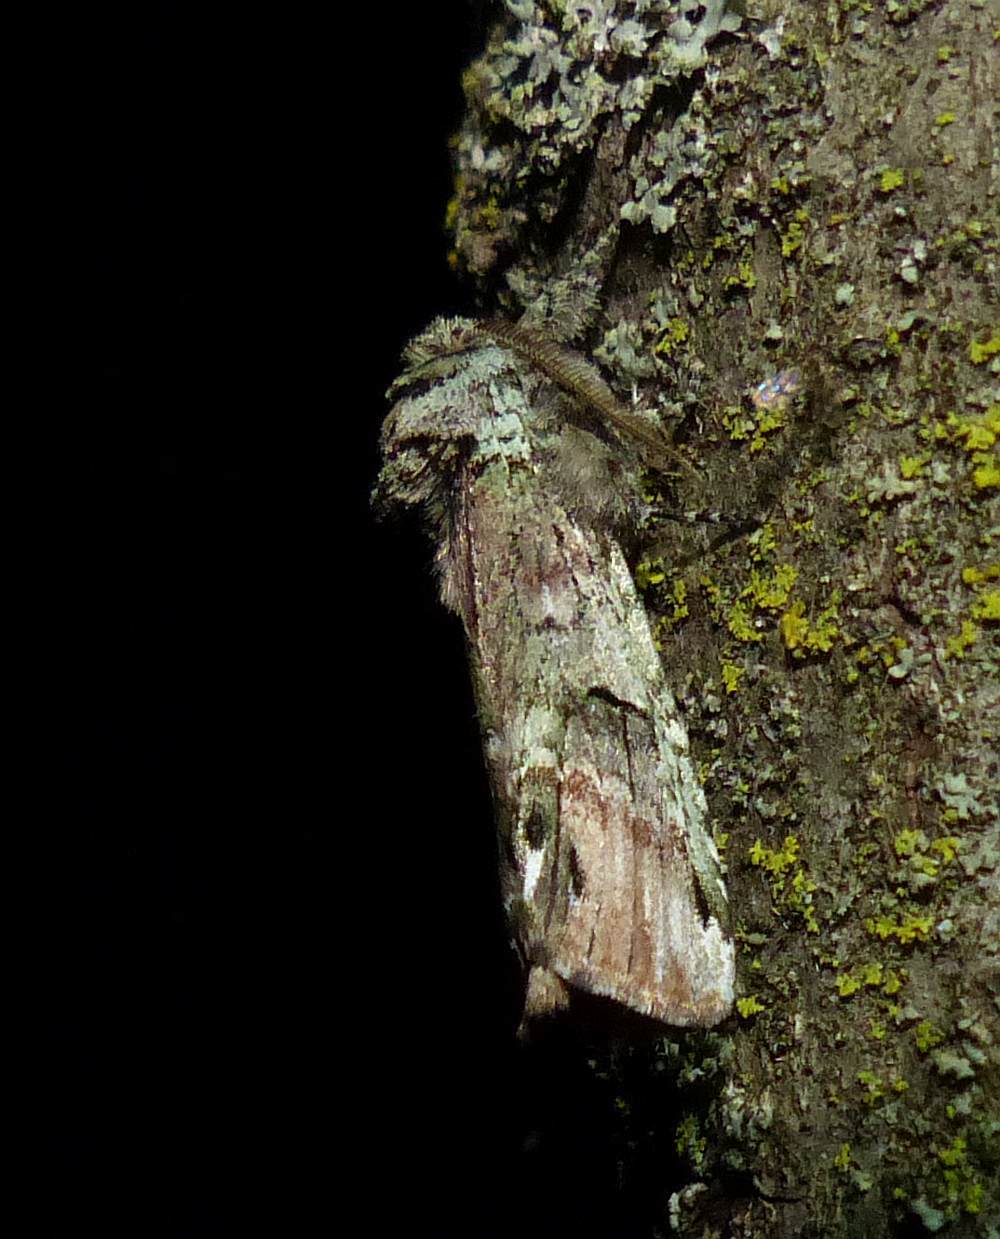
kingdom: Animalia
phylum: Arthropoda
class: Insecta
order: Lepidoptera
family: Notodontidae
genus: Schizura
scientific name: Schizura
